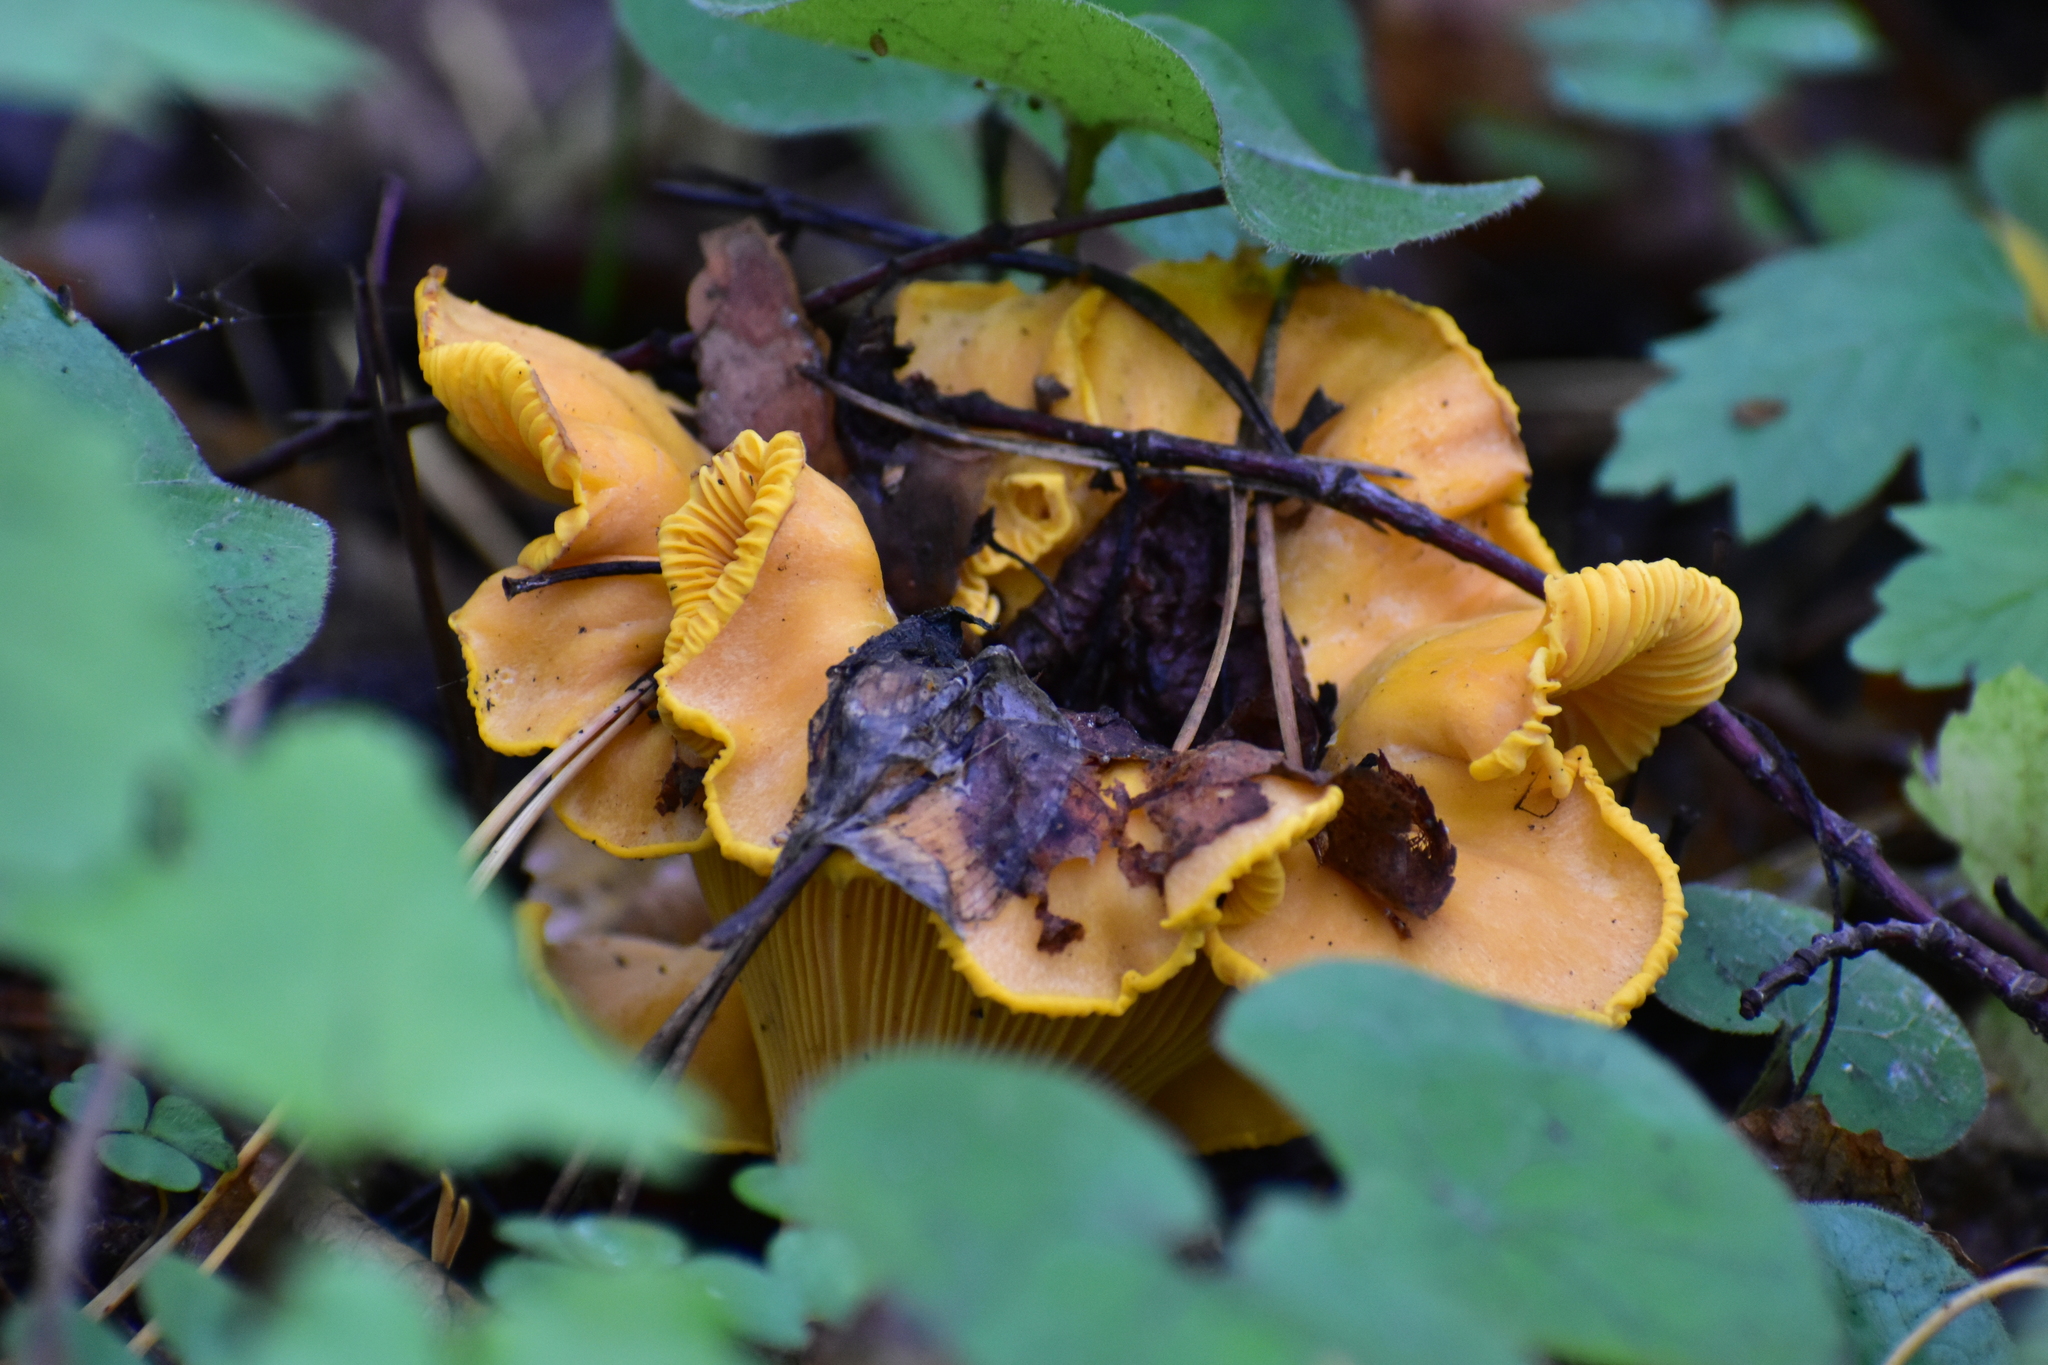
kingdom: Fungi
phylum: Basidiomycota
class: Agaricomycetes
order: Cantharellales
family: Hydnaceae
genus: Cantharellus
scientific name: Cantharellus cibarius
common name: Chanterelle
